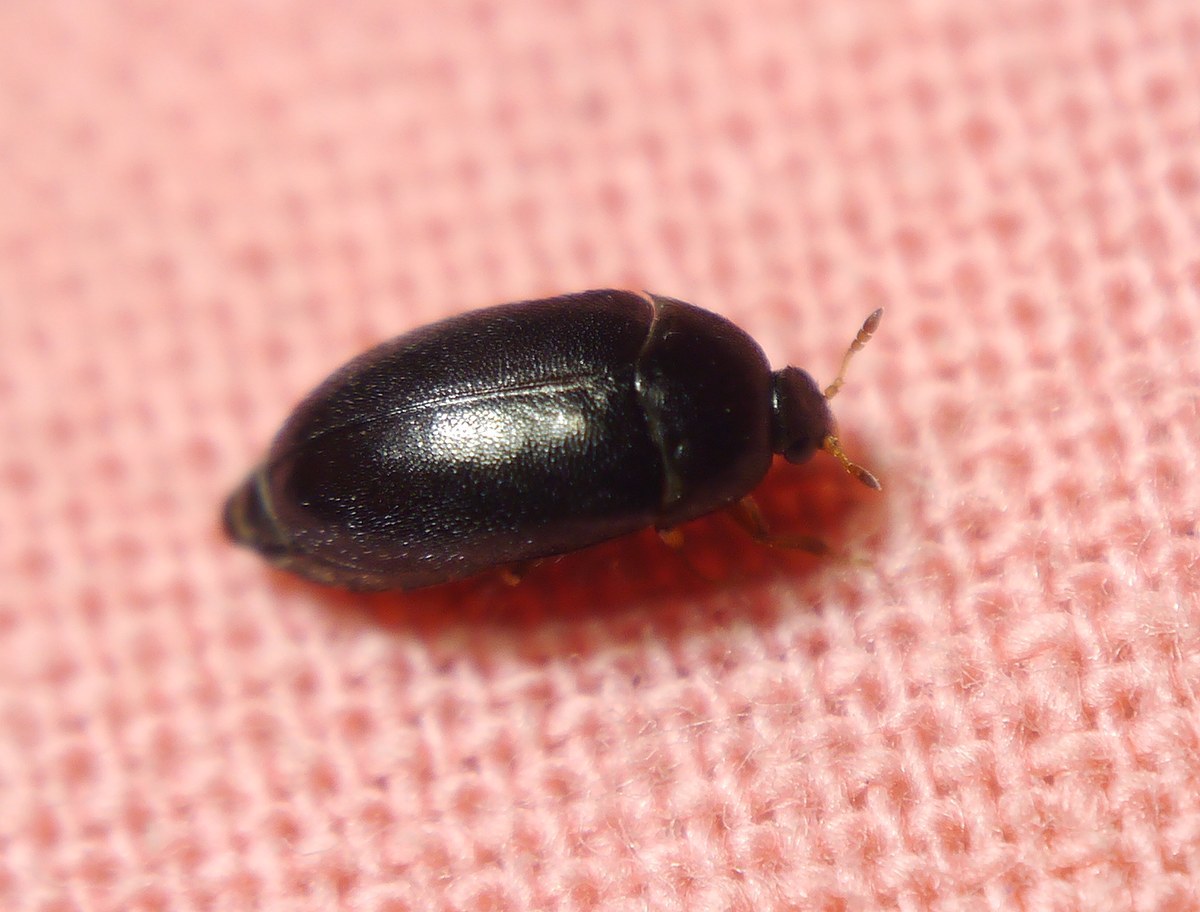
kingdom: Animalia
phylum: Arthropoda
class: Insecta
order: Coleoptera
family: Dermestidae
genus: Attagenus
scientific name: Attagenus unicolor
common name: Black carpet beetle
